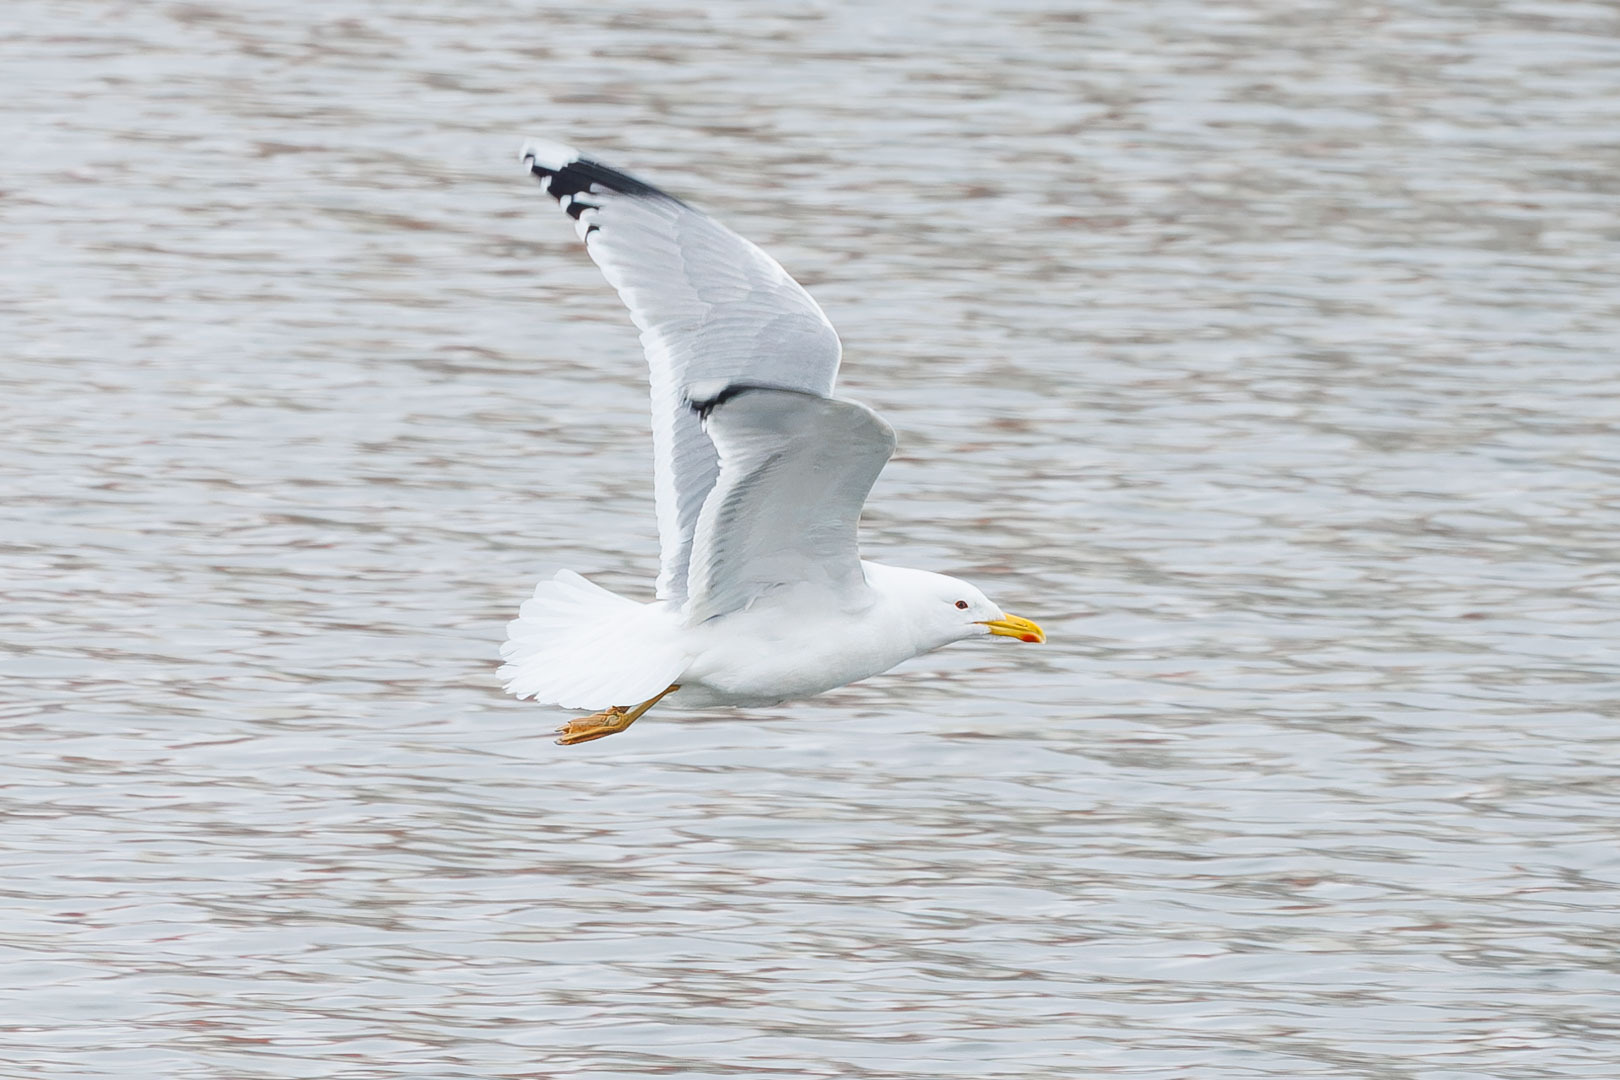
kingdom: Animalia
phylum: Chordata
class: Aves
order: Charadriiformes
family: Laridae
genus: Larus
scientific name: Larus cachinnans
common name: Caspian gull
